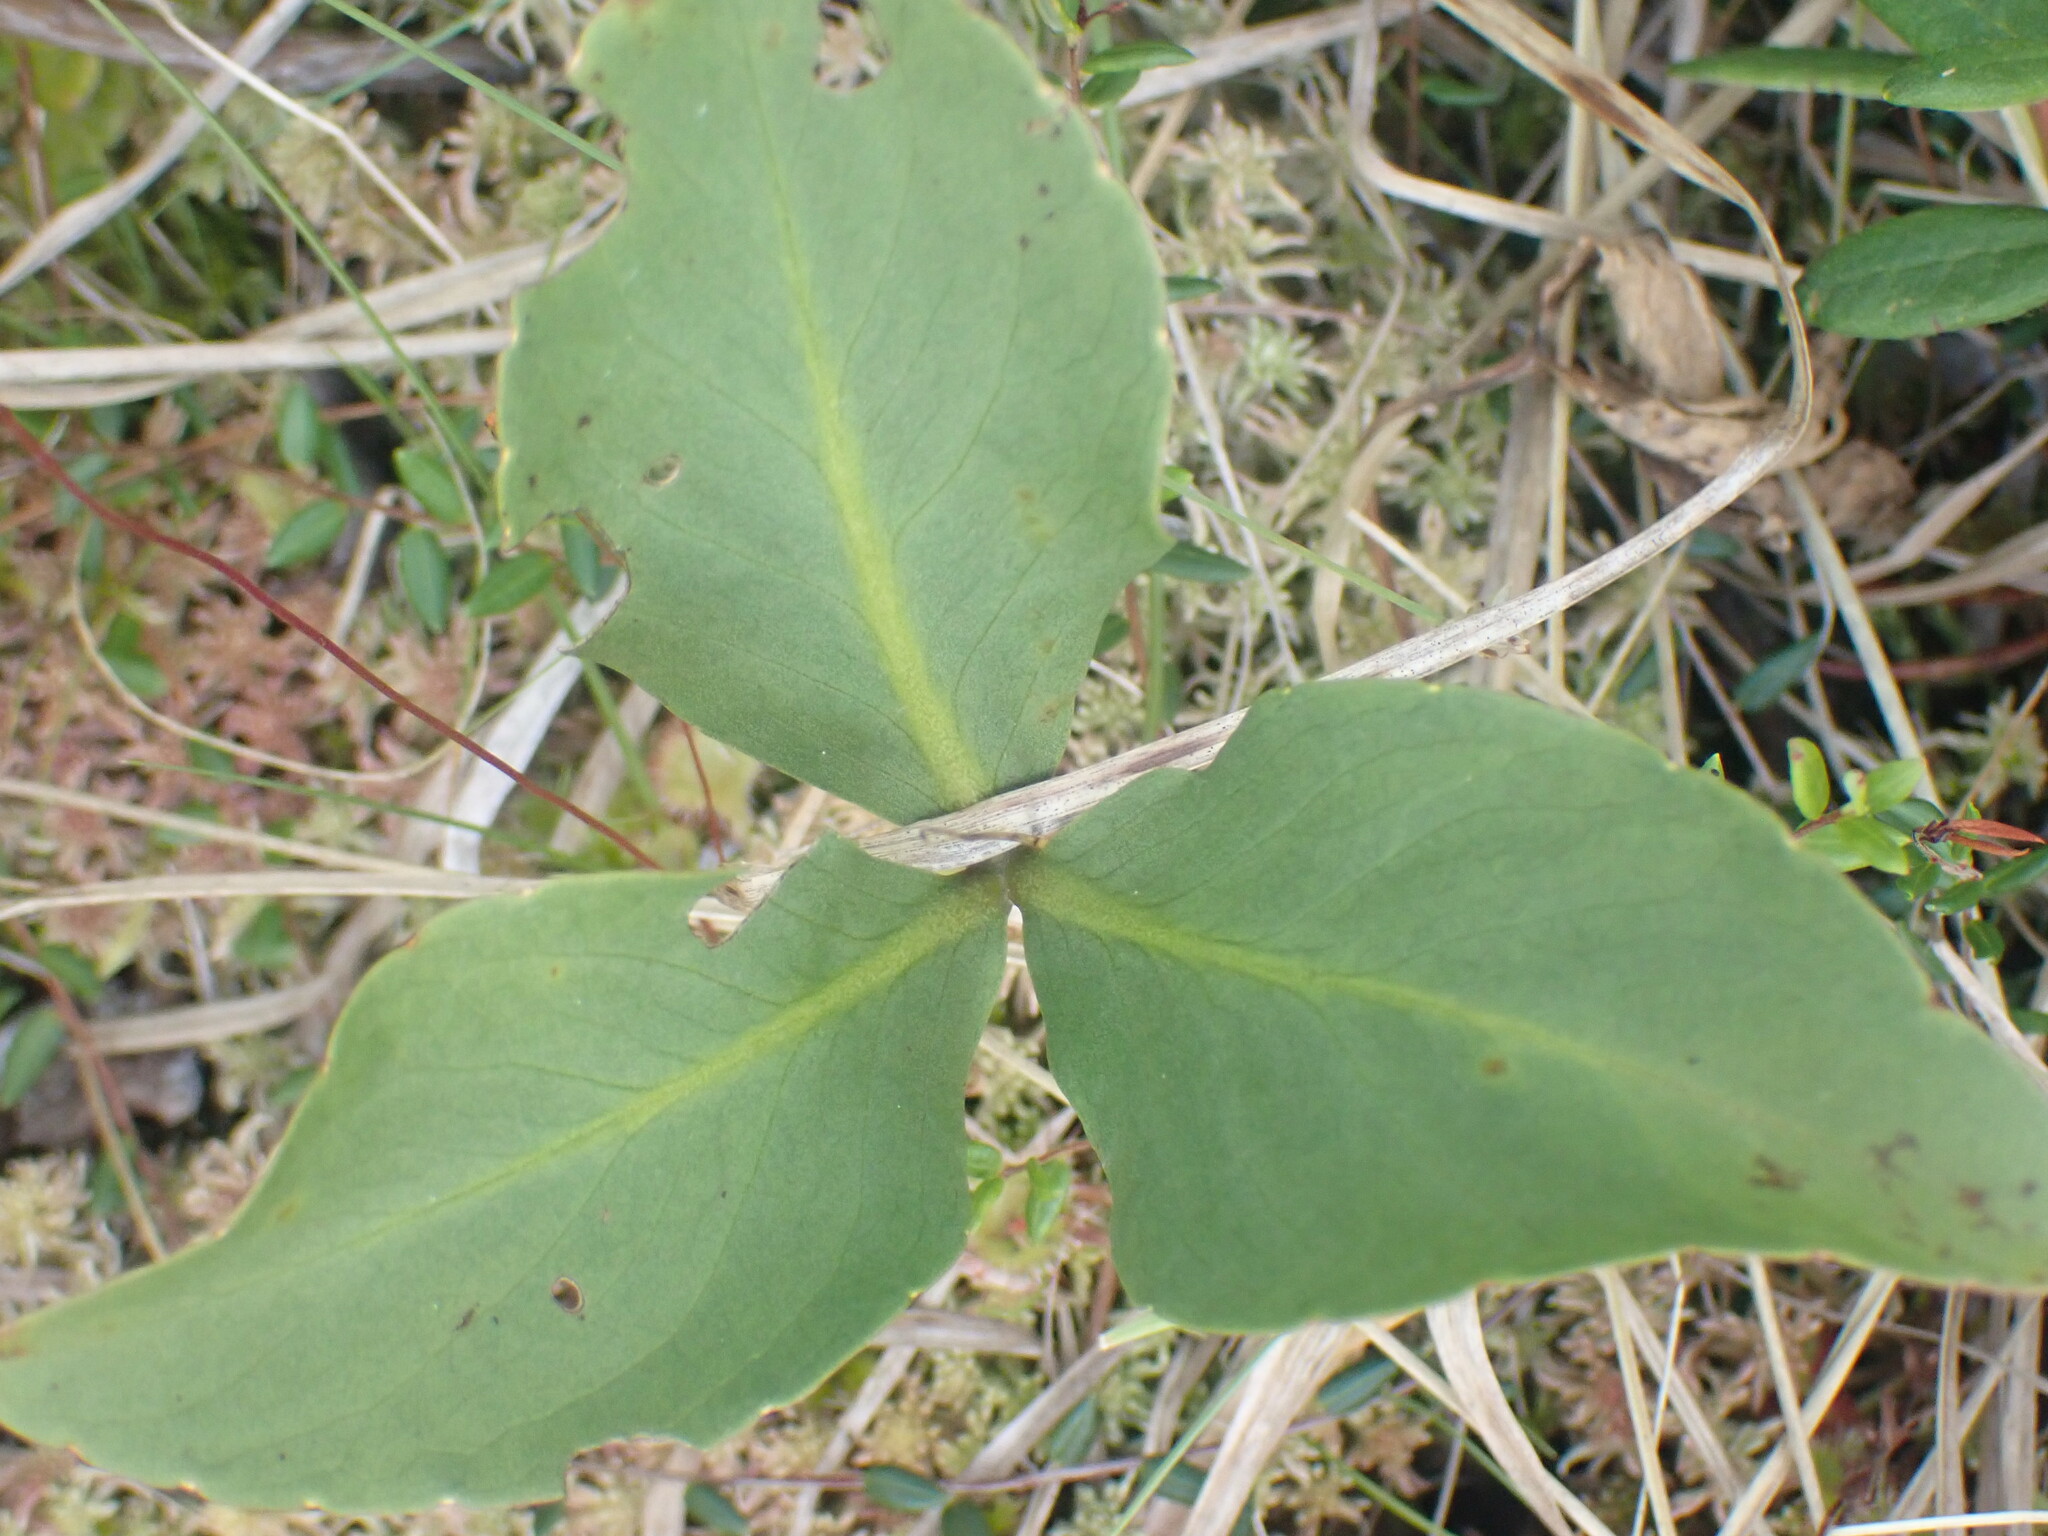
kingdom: Plantae
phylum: Tracheophyta
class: Magnoliopsida
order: Asterales
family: Menyanthaceae
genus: Menyanthes
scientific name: Menyanthes trifoliata
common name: Bogbean
